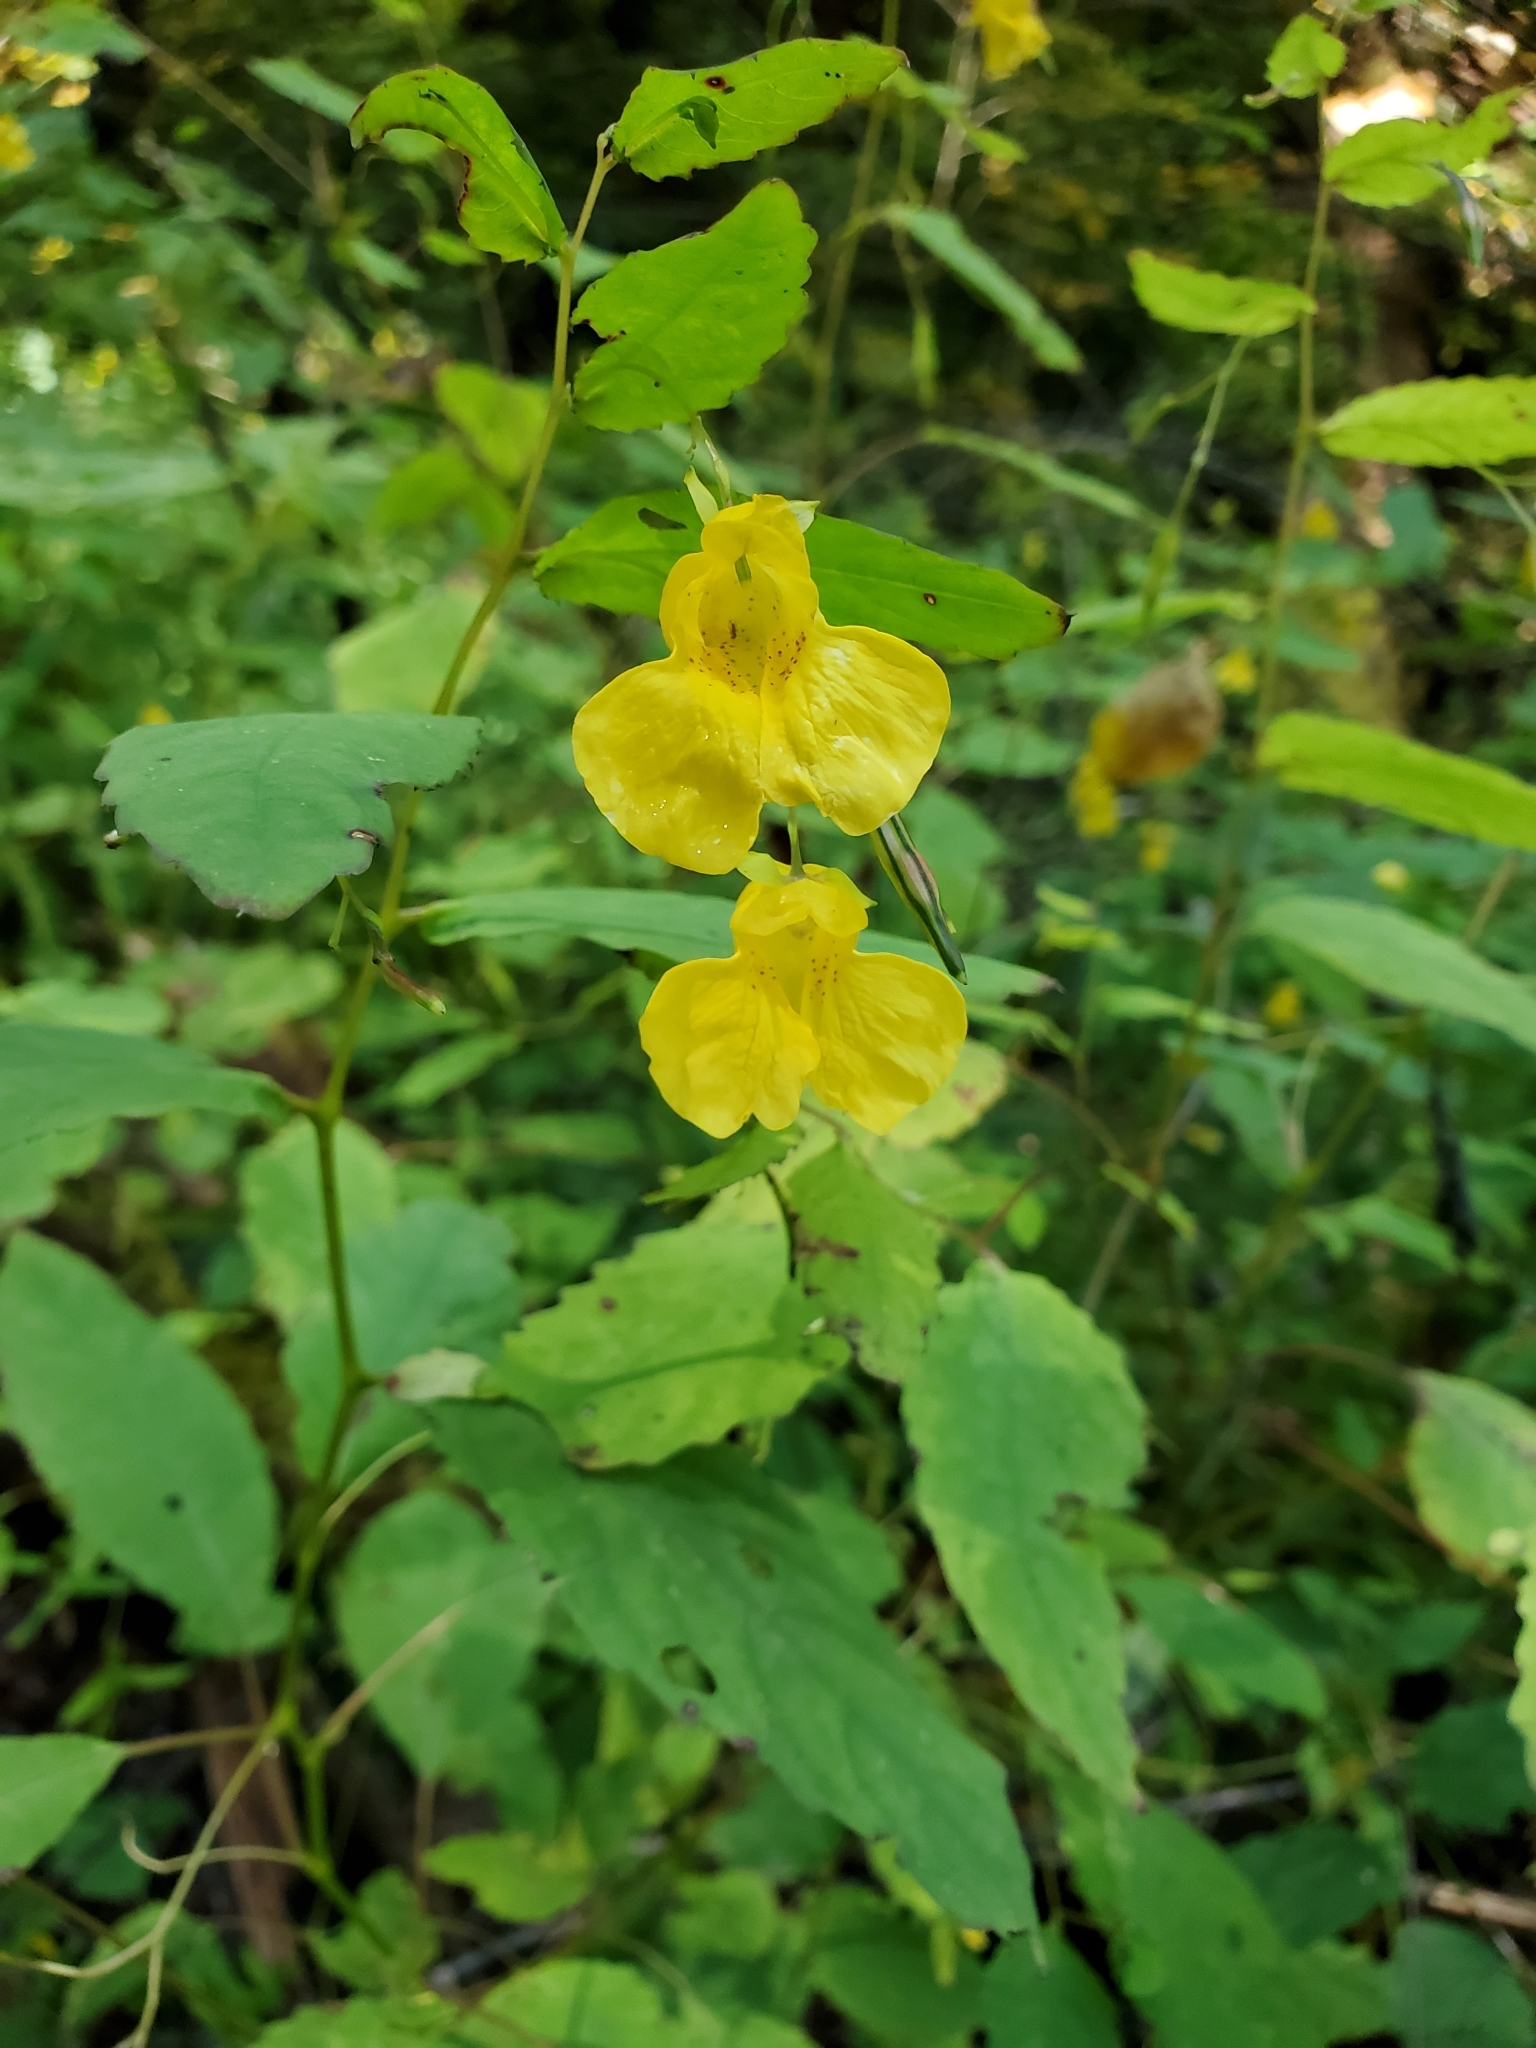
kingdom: Plantae
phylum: Tracheophyta
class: Magnoliopsida
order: Ericales
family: Balsaminaceae
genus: Impatiens
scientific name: Impatiens pallida
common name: Pale snapweed
